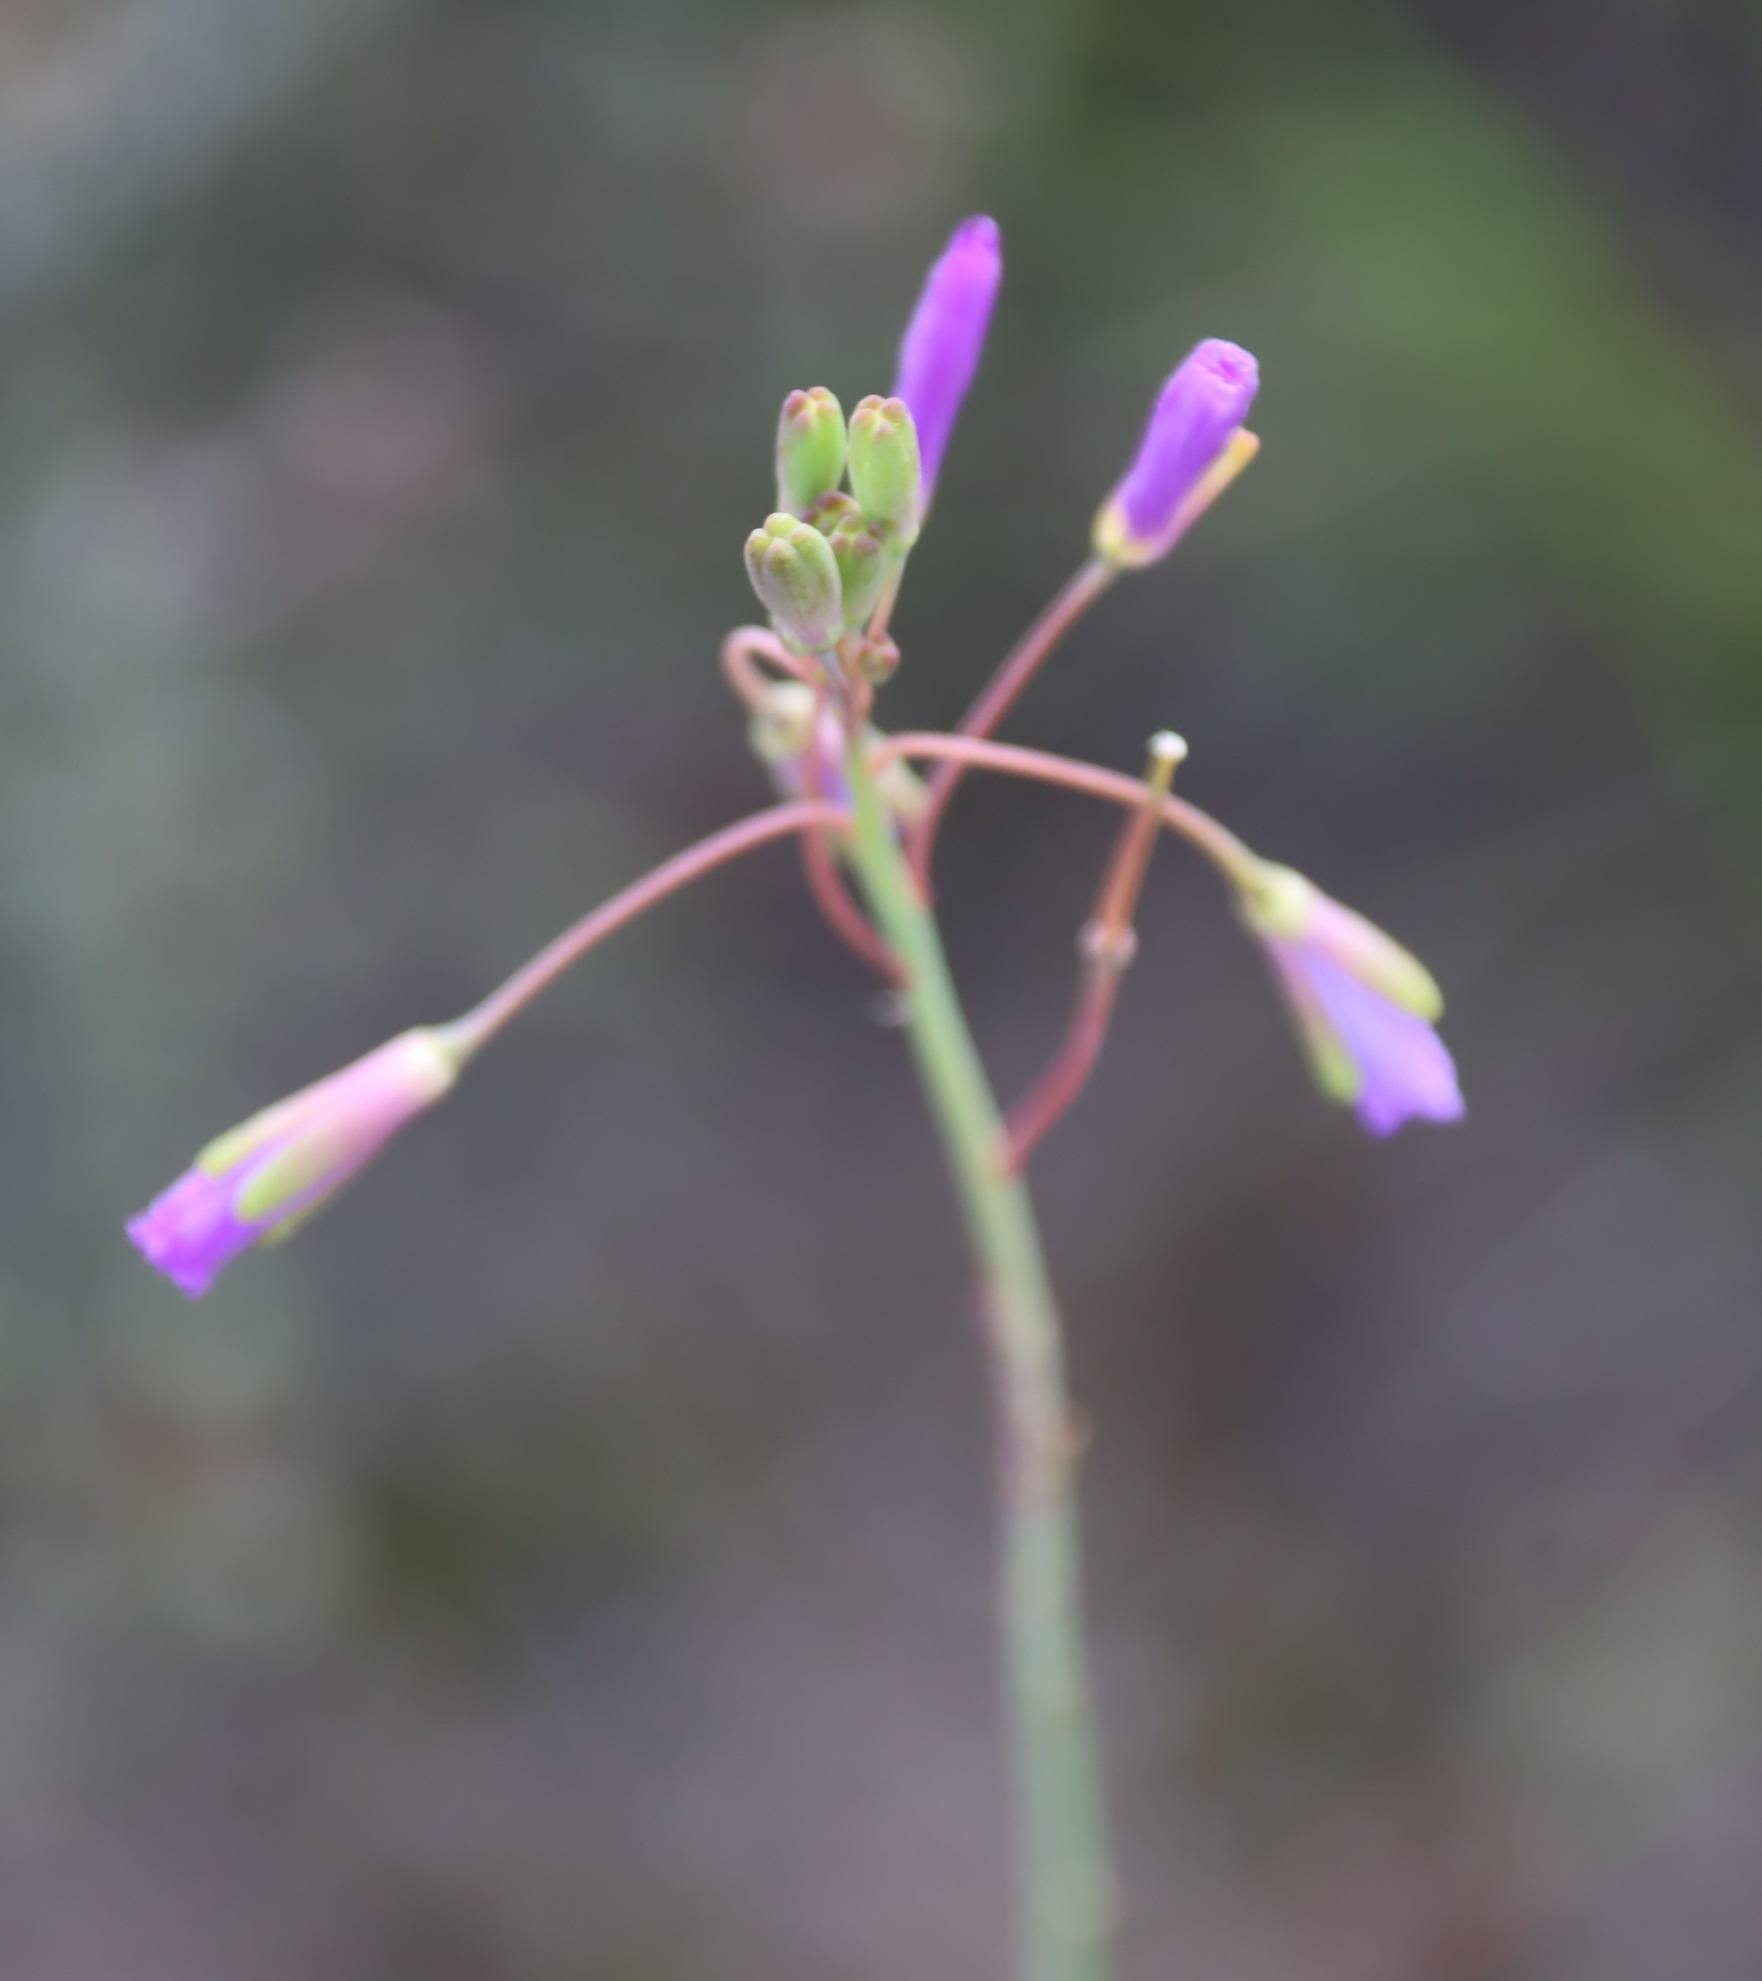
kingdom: Plantae
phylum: Tracheophyta
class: Magnoliopsida
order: Brassicales
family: Brassicaceae
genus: Heliophila
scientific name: Heliophila linearis
